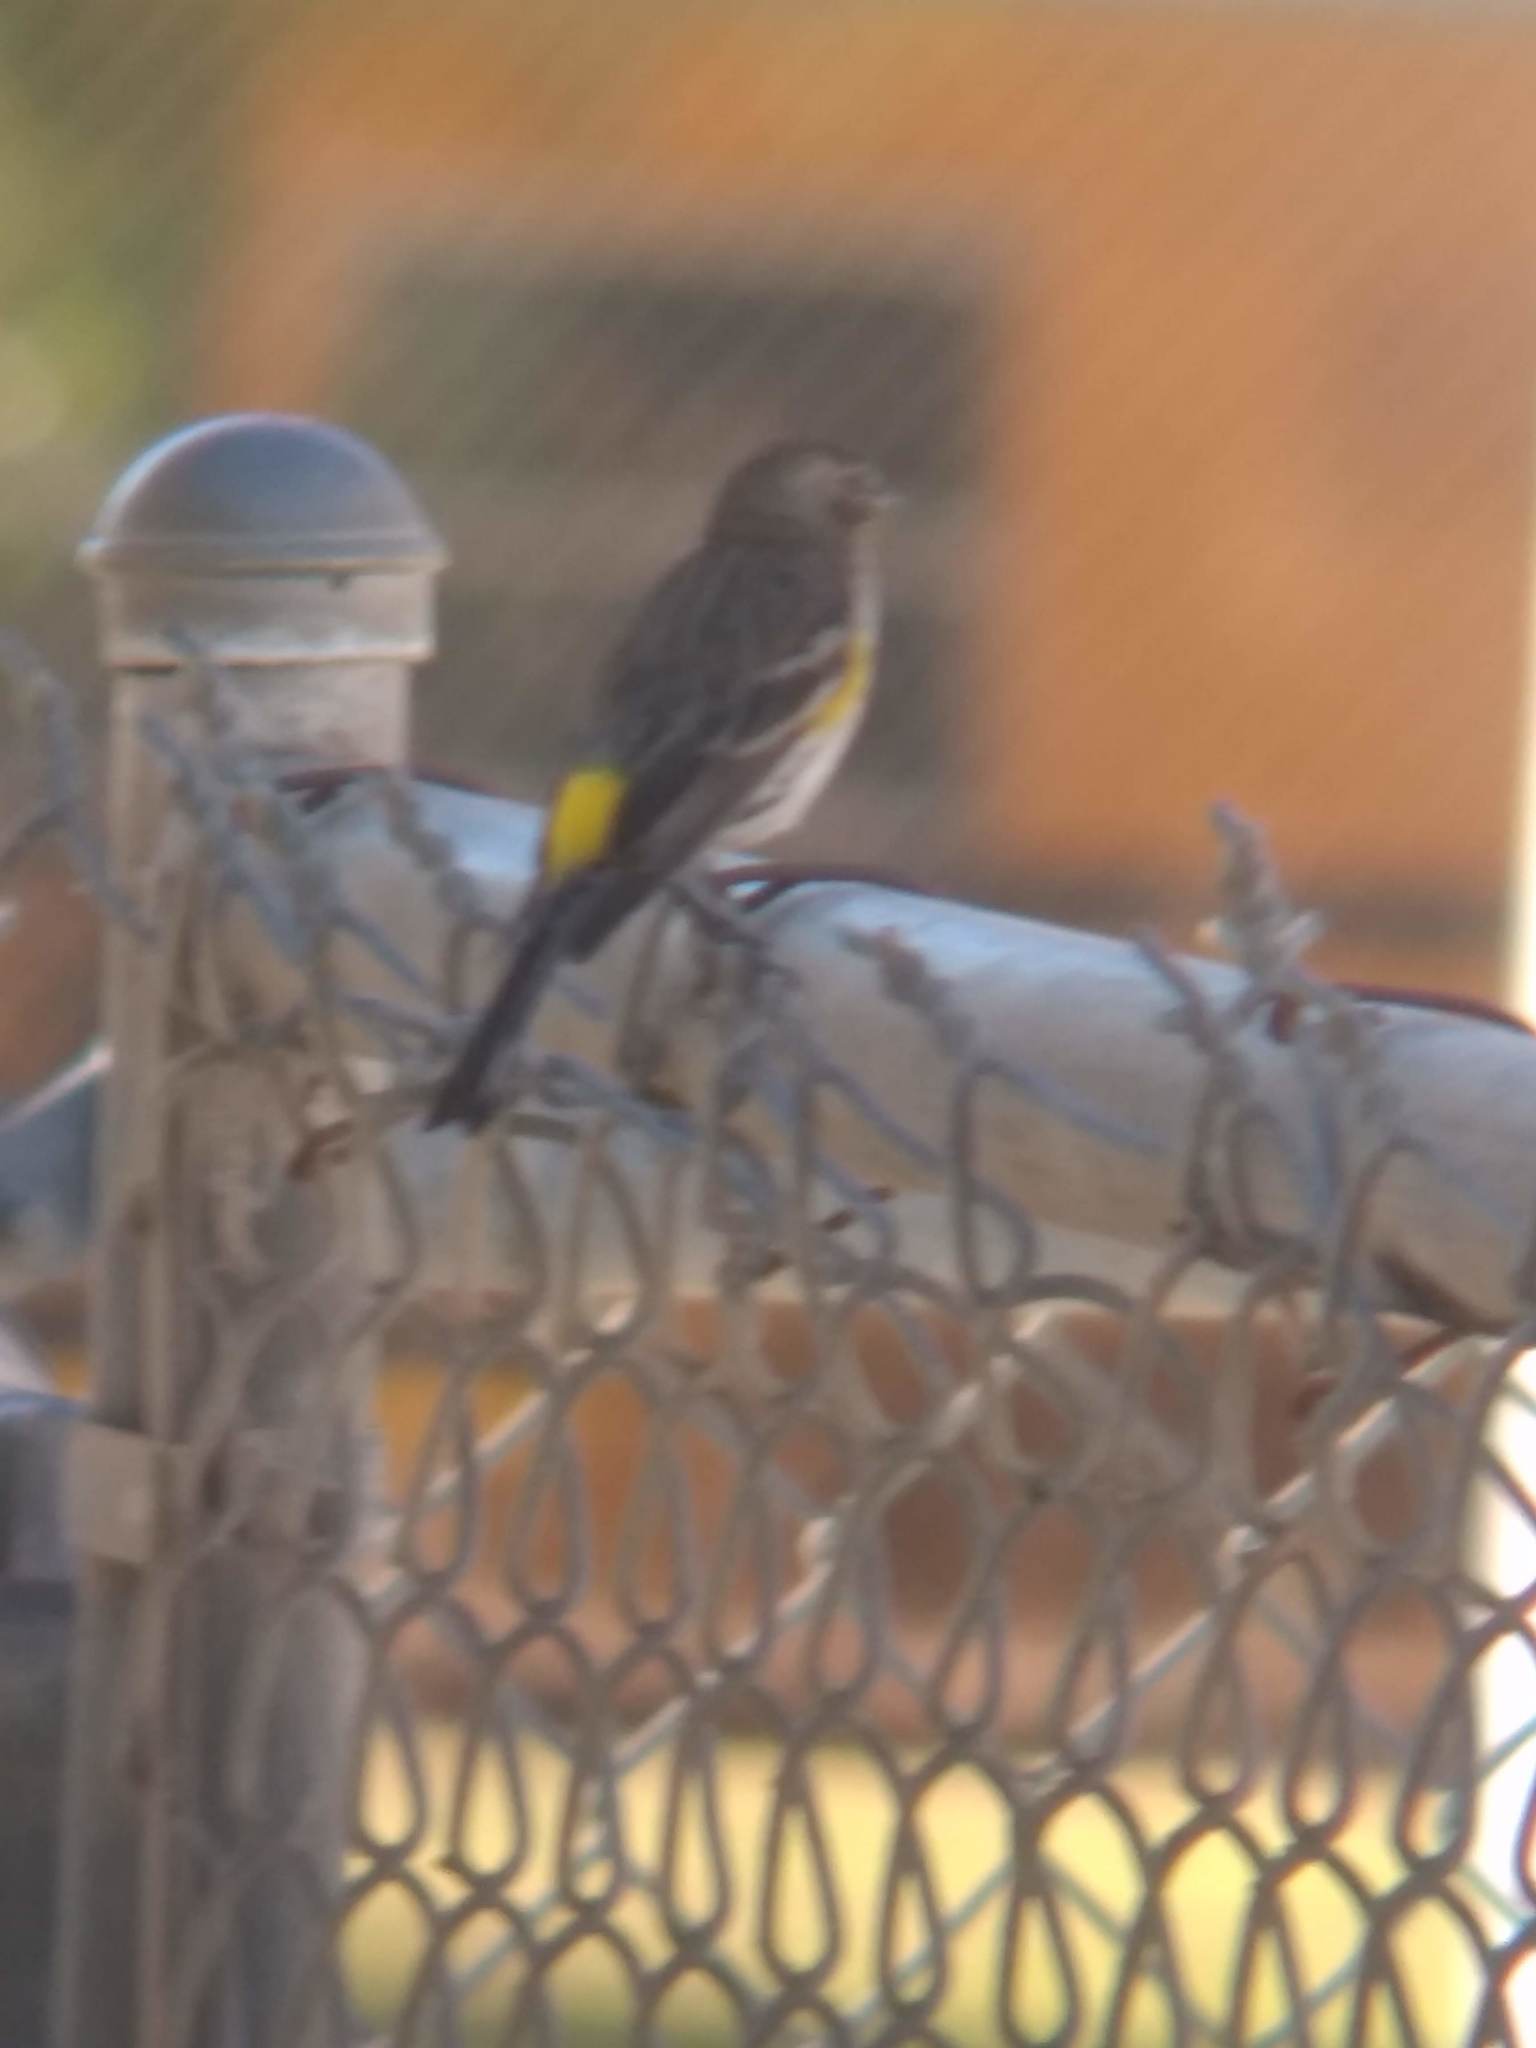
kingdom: Animalia
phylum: Chordata
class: Aves
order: Passeriformes
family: Parulidae
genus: Setophaga
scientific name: Setophaga coronata
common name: Myrtle warbler
